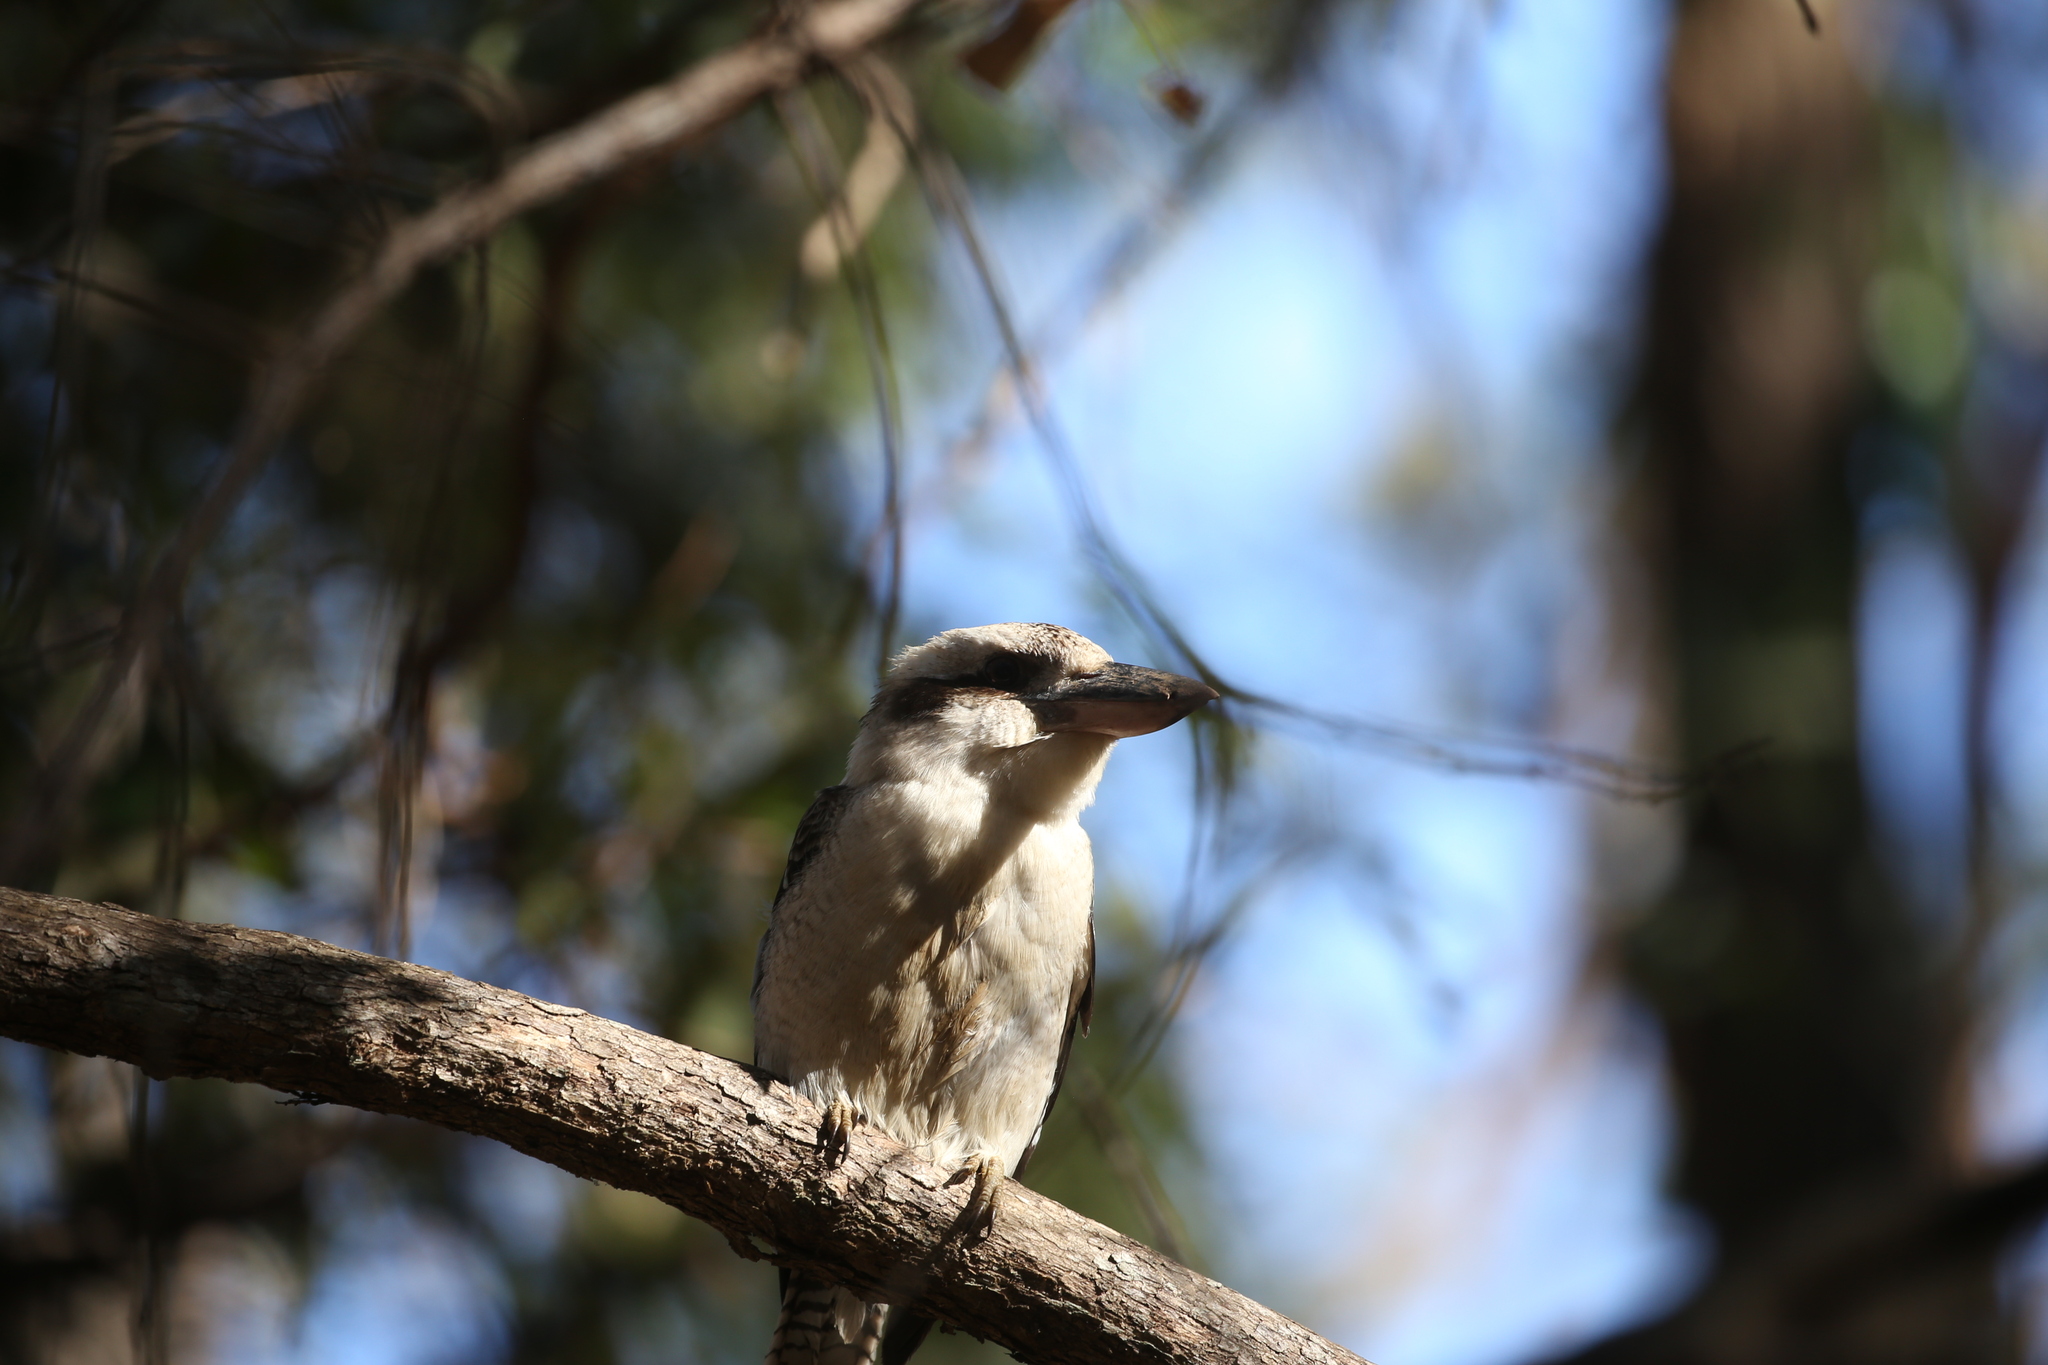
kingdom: Animalia
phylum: Chordata
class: Aves
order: Coraciiformes
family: Alcedinidae
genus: Dacelo
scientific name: Dacelo novaeguineae
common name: Laughing kookaburra
